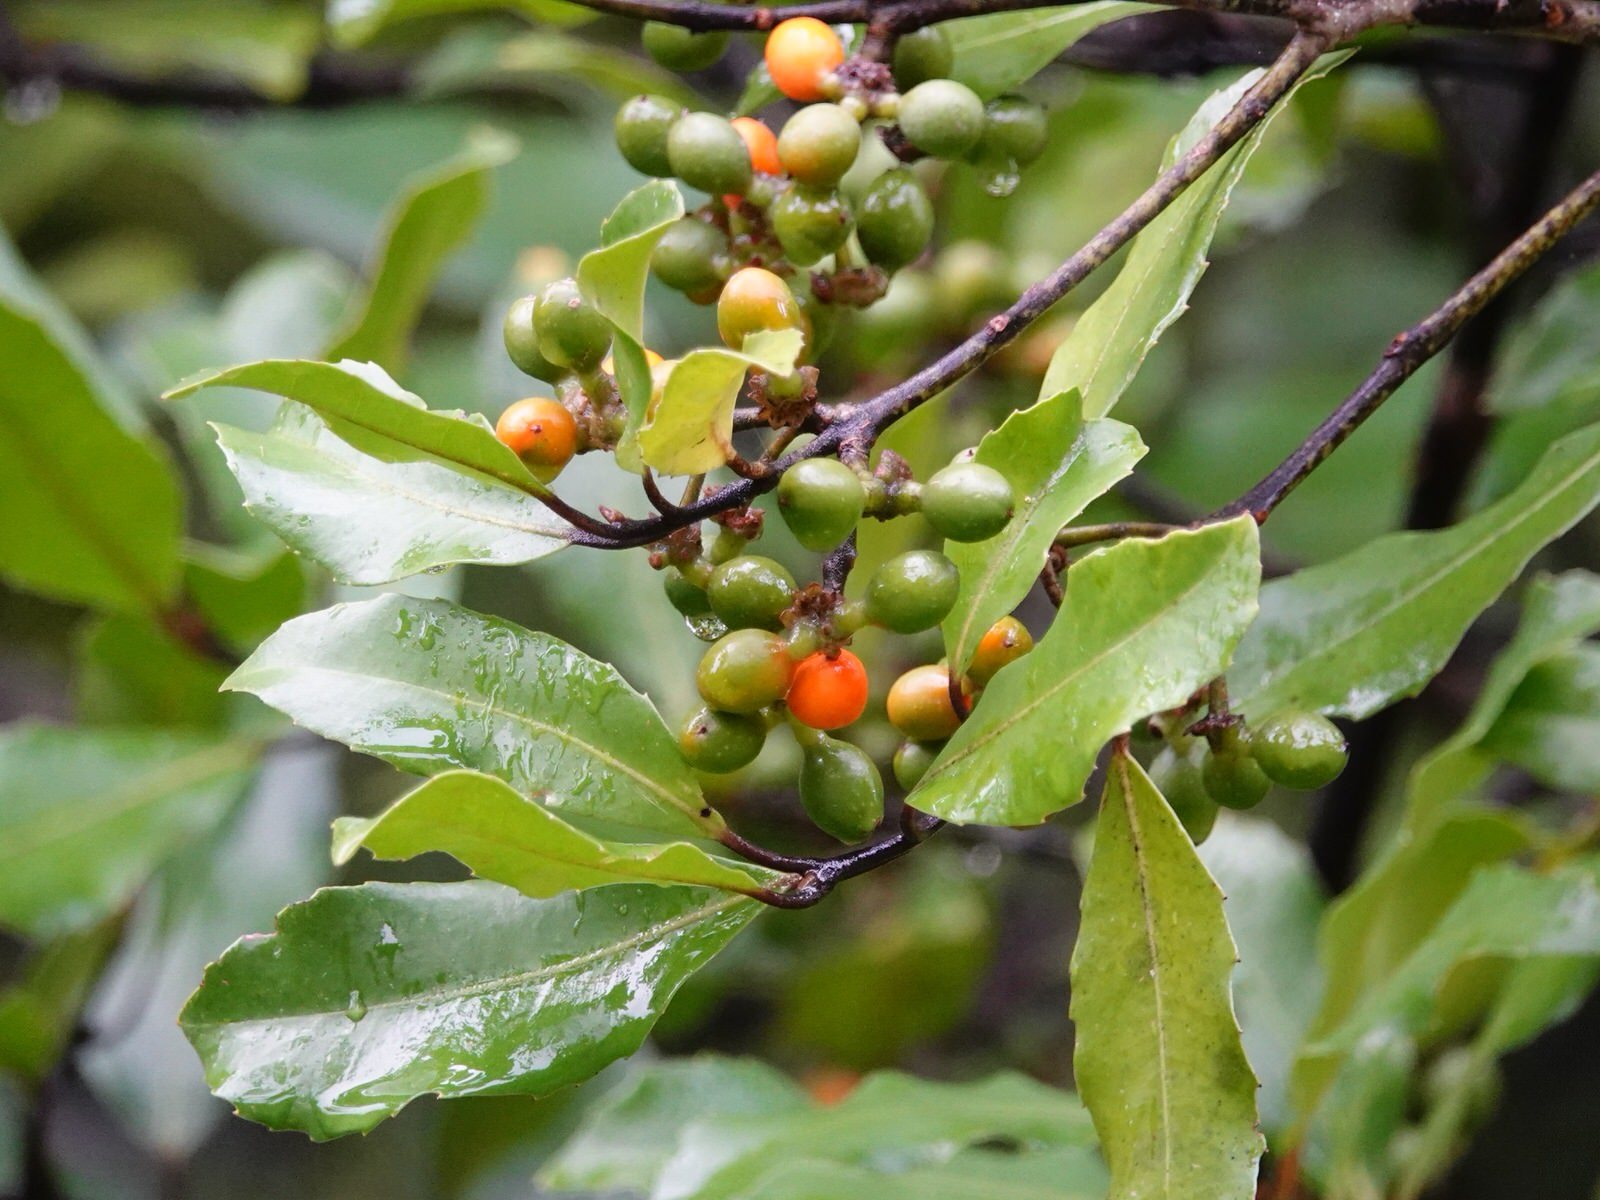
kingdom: Plantae
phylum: Tracheophyta
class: Magnoliopsida
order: Laurales
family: Monimiaceae
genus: Hedycarya
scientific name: Hedycarya arborea
